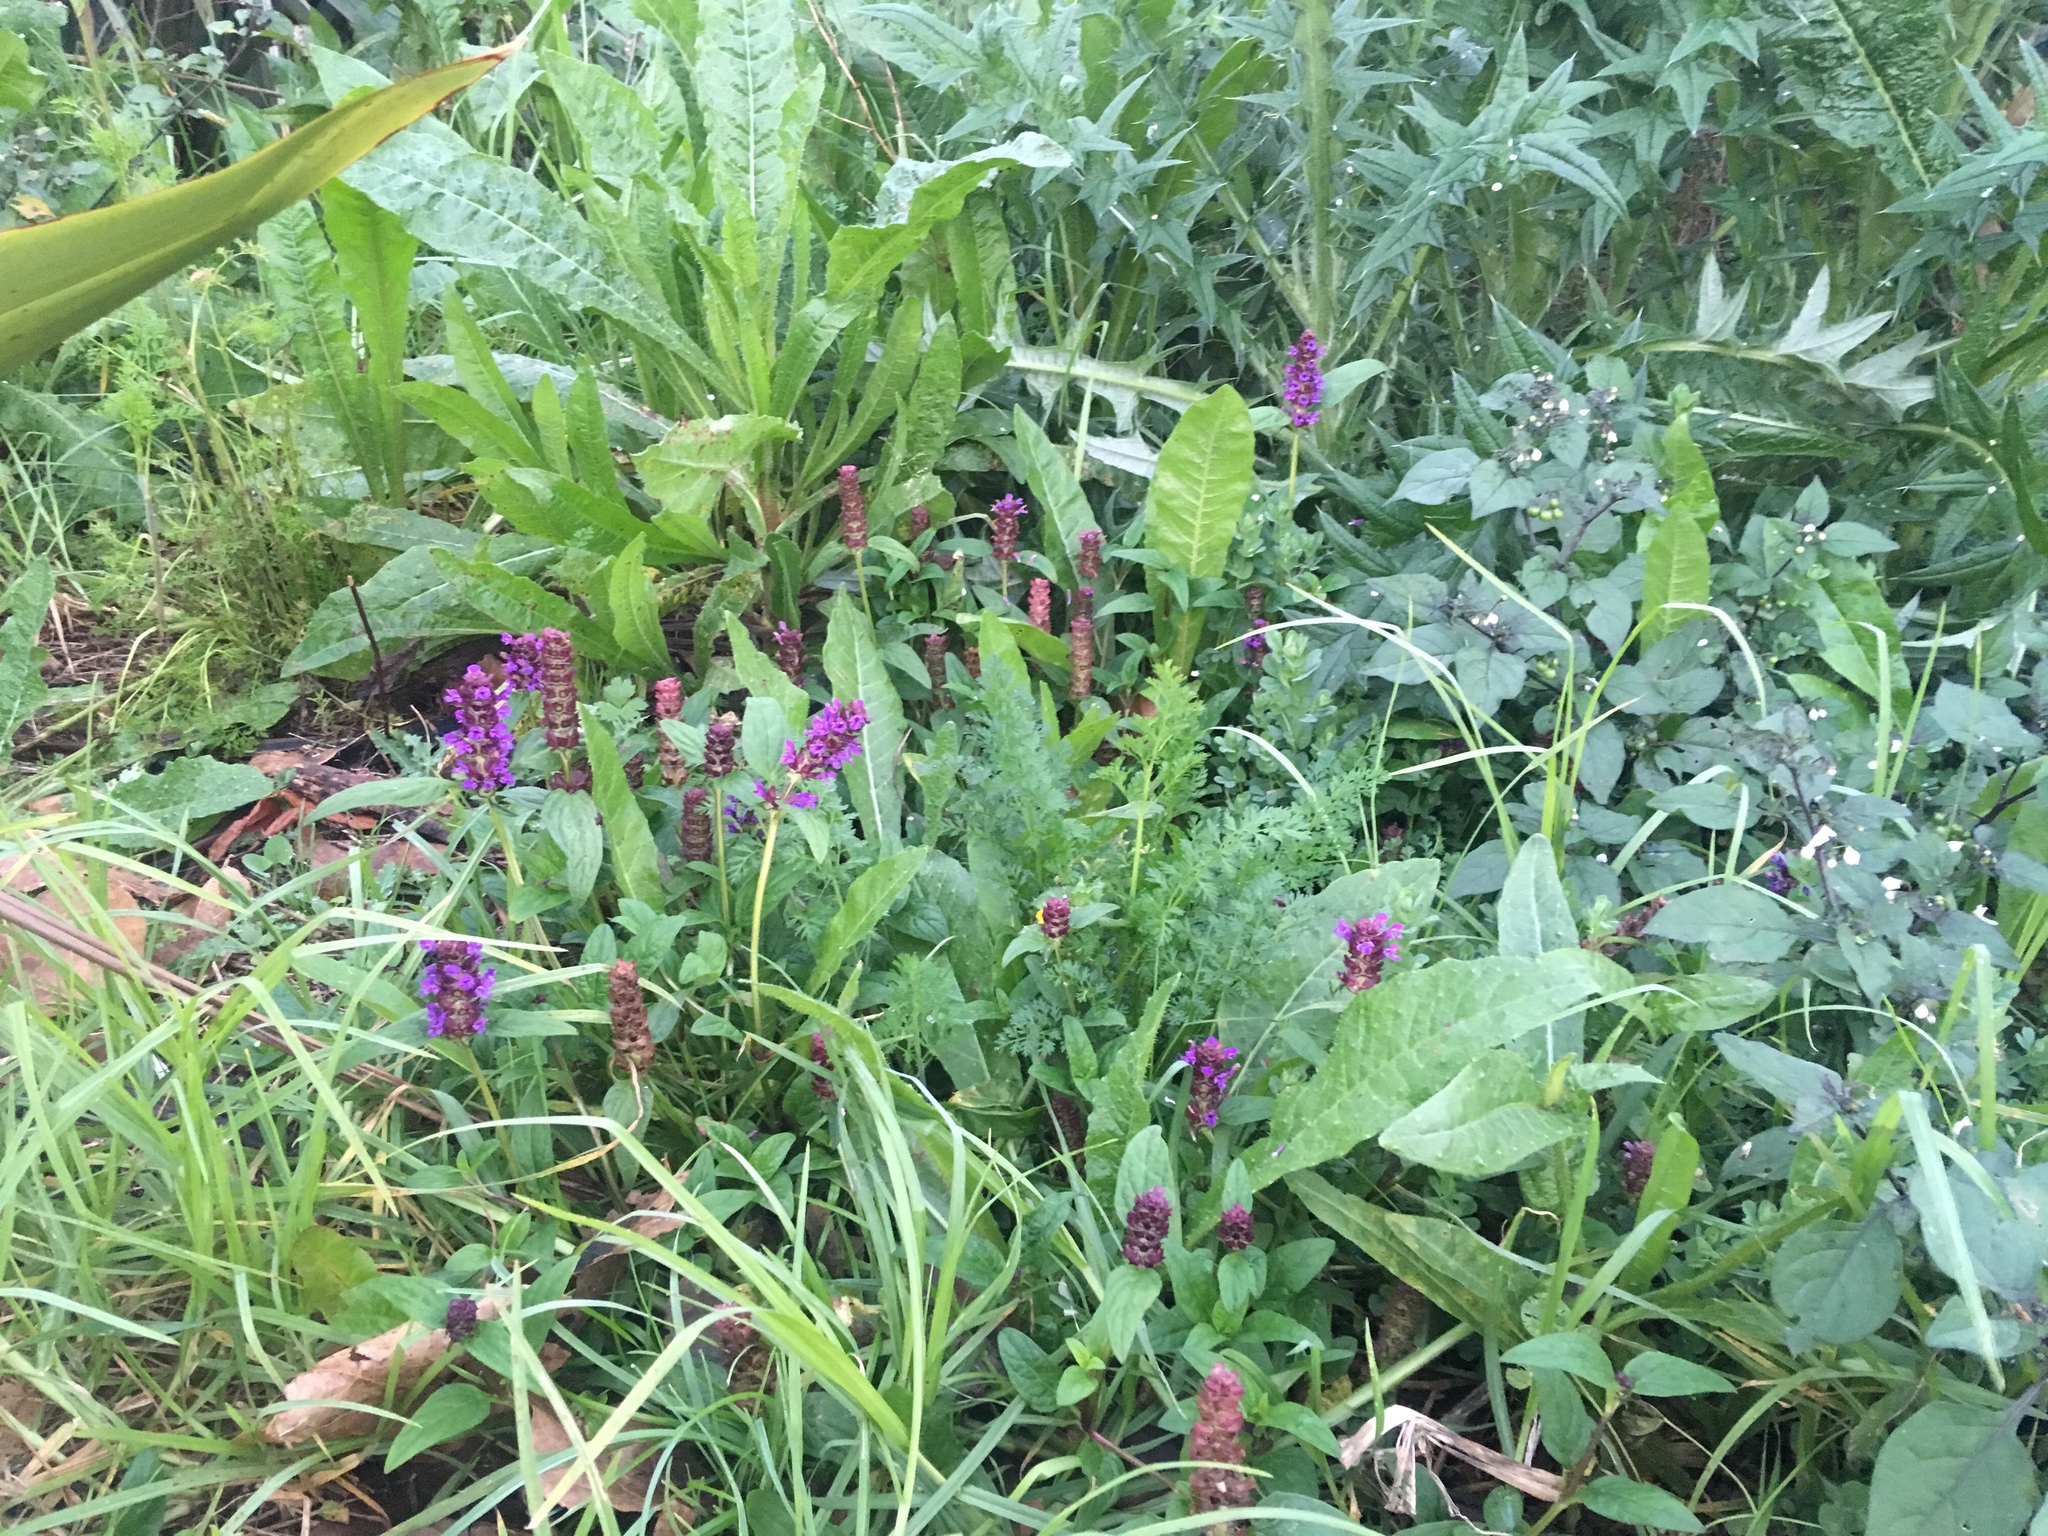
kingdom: Plantae
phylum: Tracheophyta
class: Magnoliopsida
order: Lamiales
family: Lamiaceae
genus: Prunella
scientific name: Prunella vulgaris
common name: Heal-all
